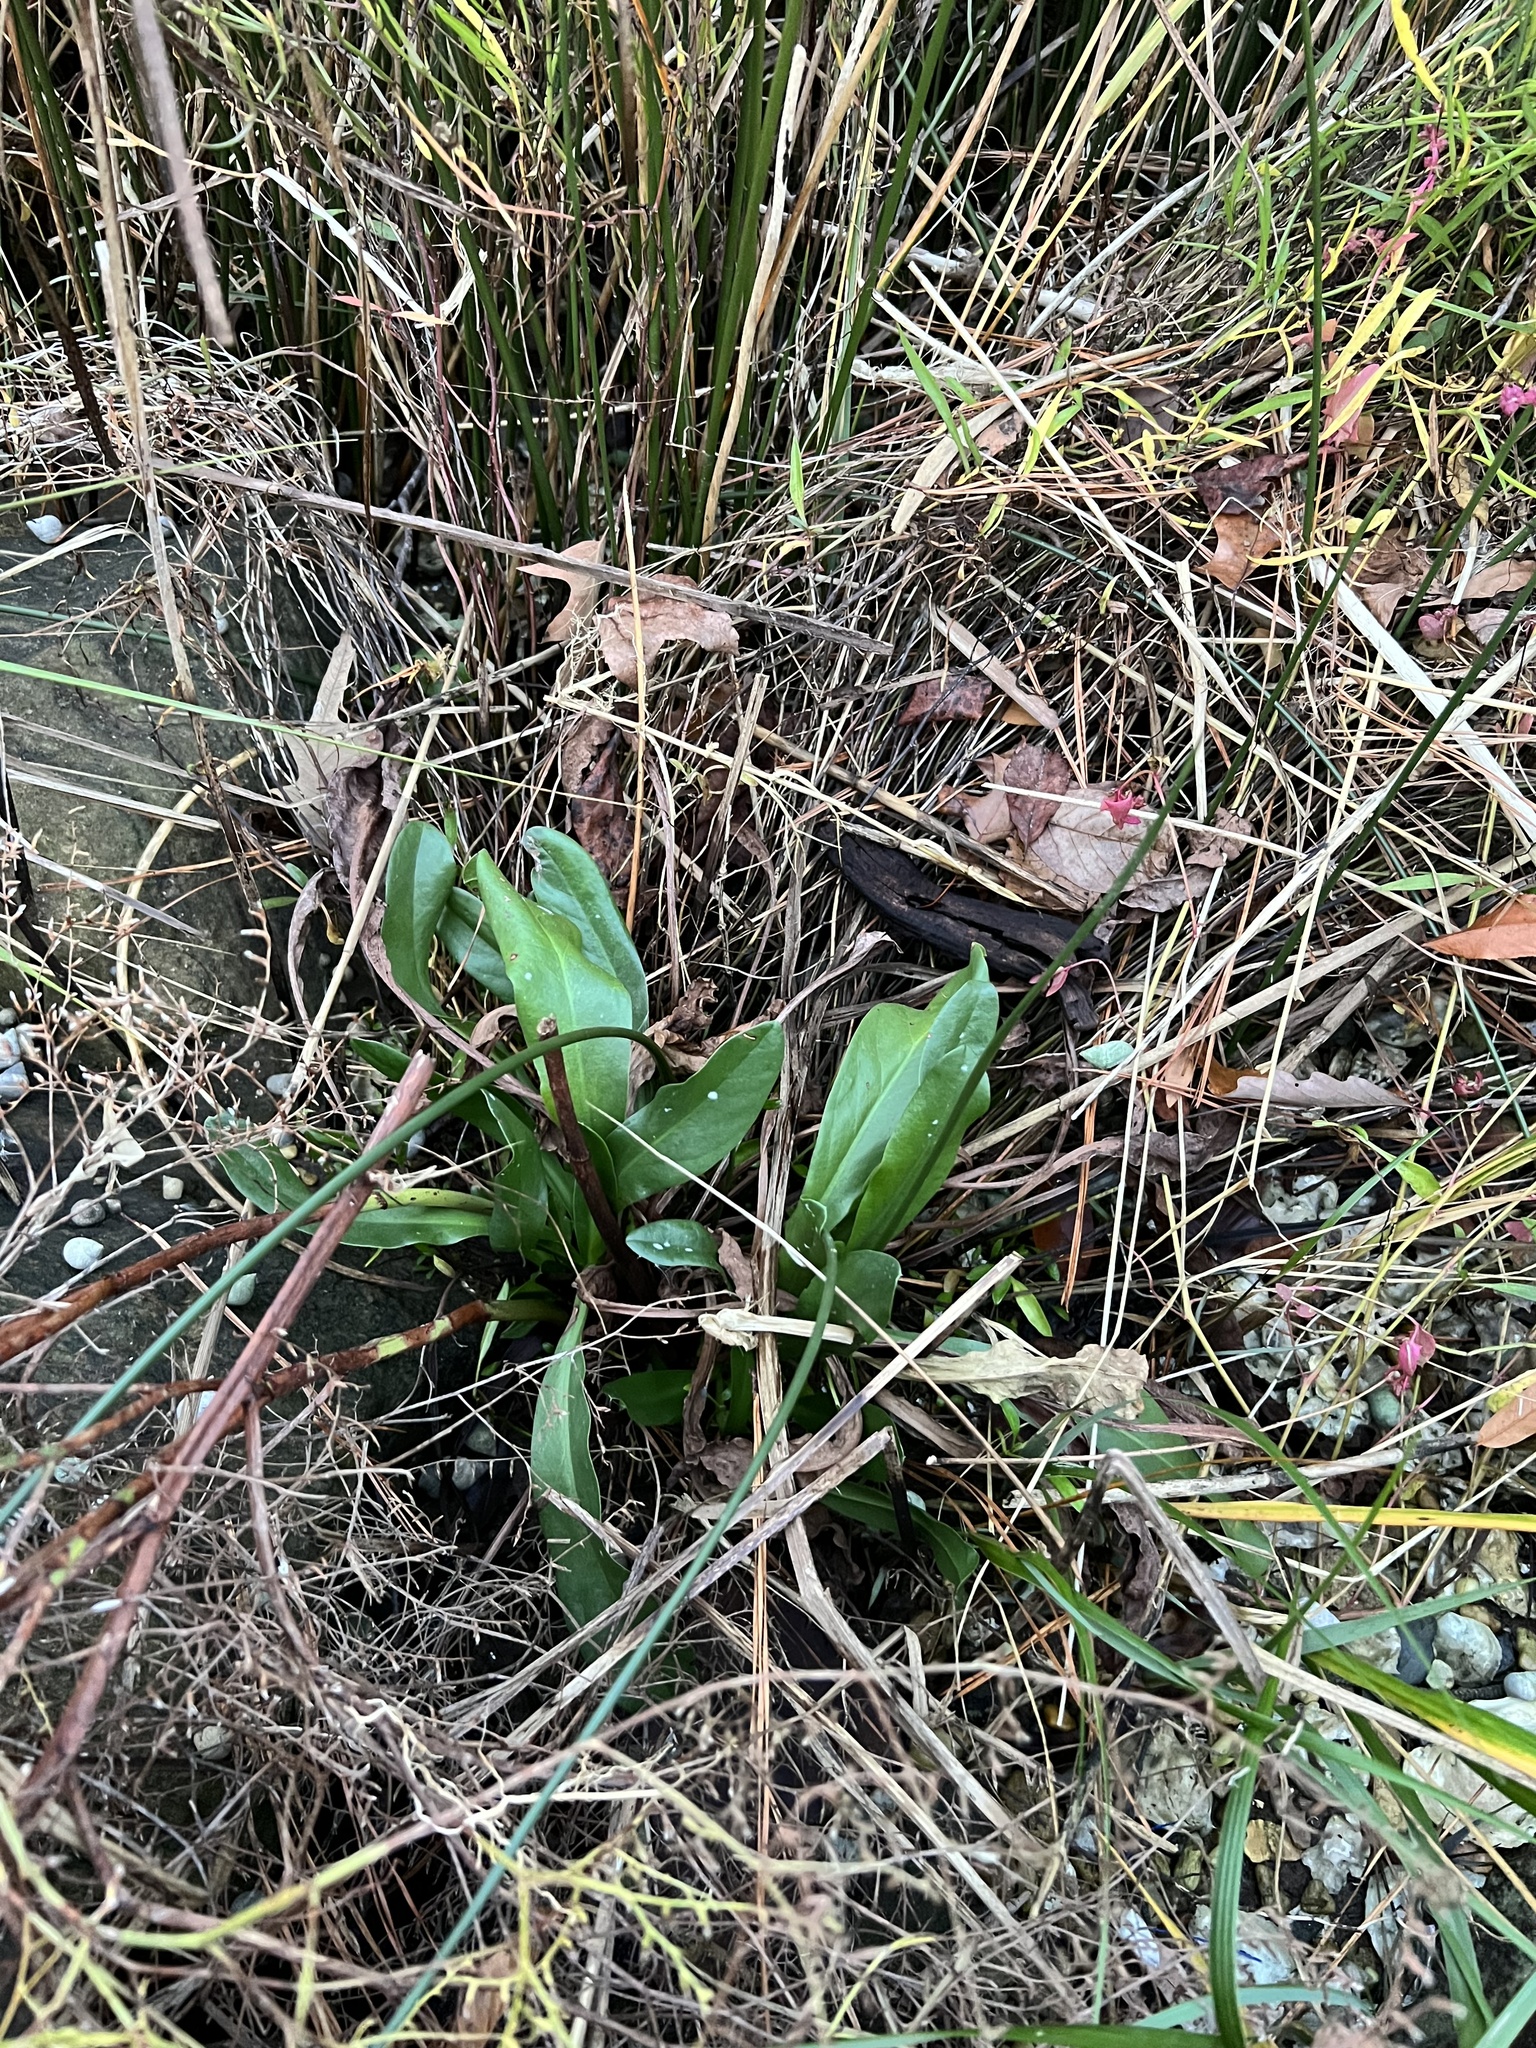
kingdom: Plantae
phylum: Tracheophyta
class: Magnoliopsida
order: Caryophyllales
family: Plumbaginaceae
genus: Limonium
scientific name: Limonium carolinianum
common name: Carolina sea lavender
